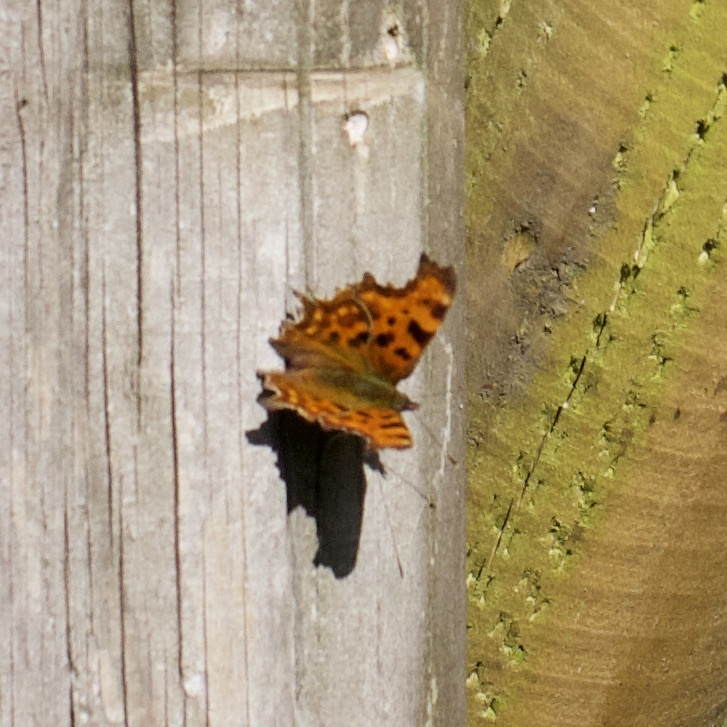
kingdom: Animalia
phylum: Arthropoda
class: Insecta
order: Lepidoptera
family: Nymphalidae
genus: Polygonia
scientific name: Polygonia c-album
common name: Comma
